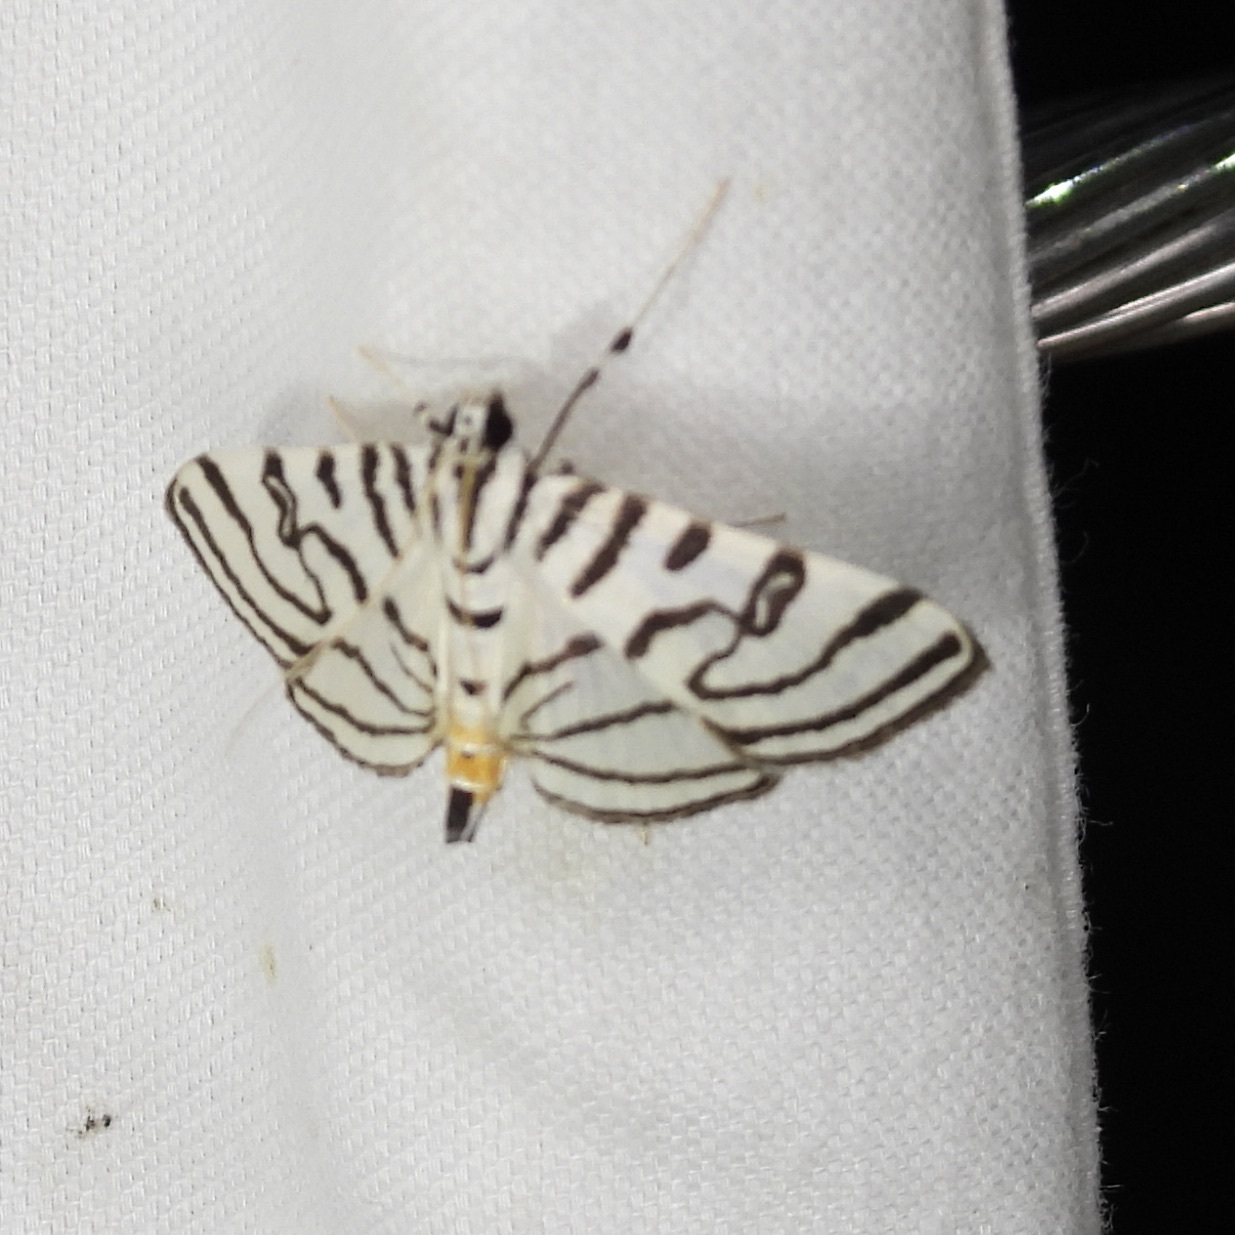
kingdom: Animalia
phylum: Arthropoda
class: Insecta
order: Lepidoptera
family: Crambidae
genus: Conchylodes
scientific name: Conchylodes ovulalis
